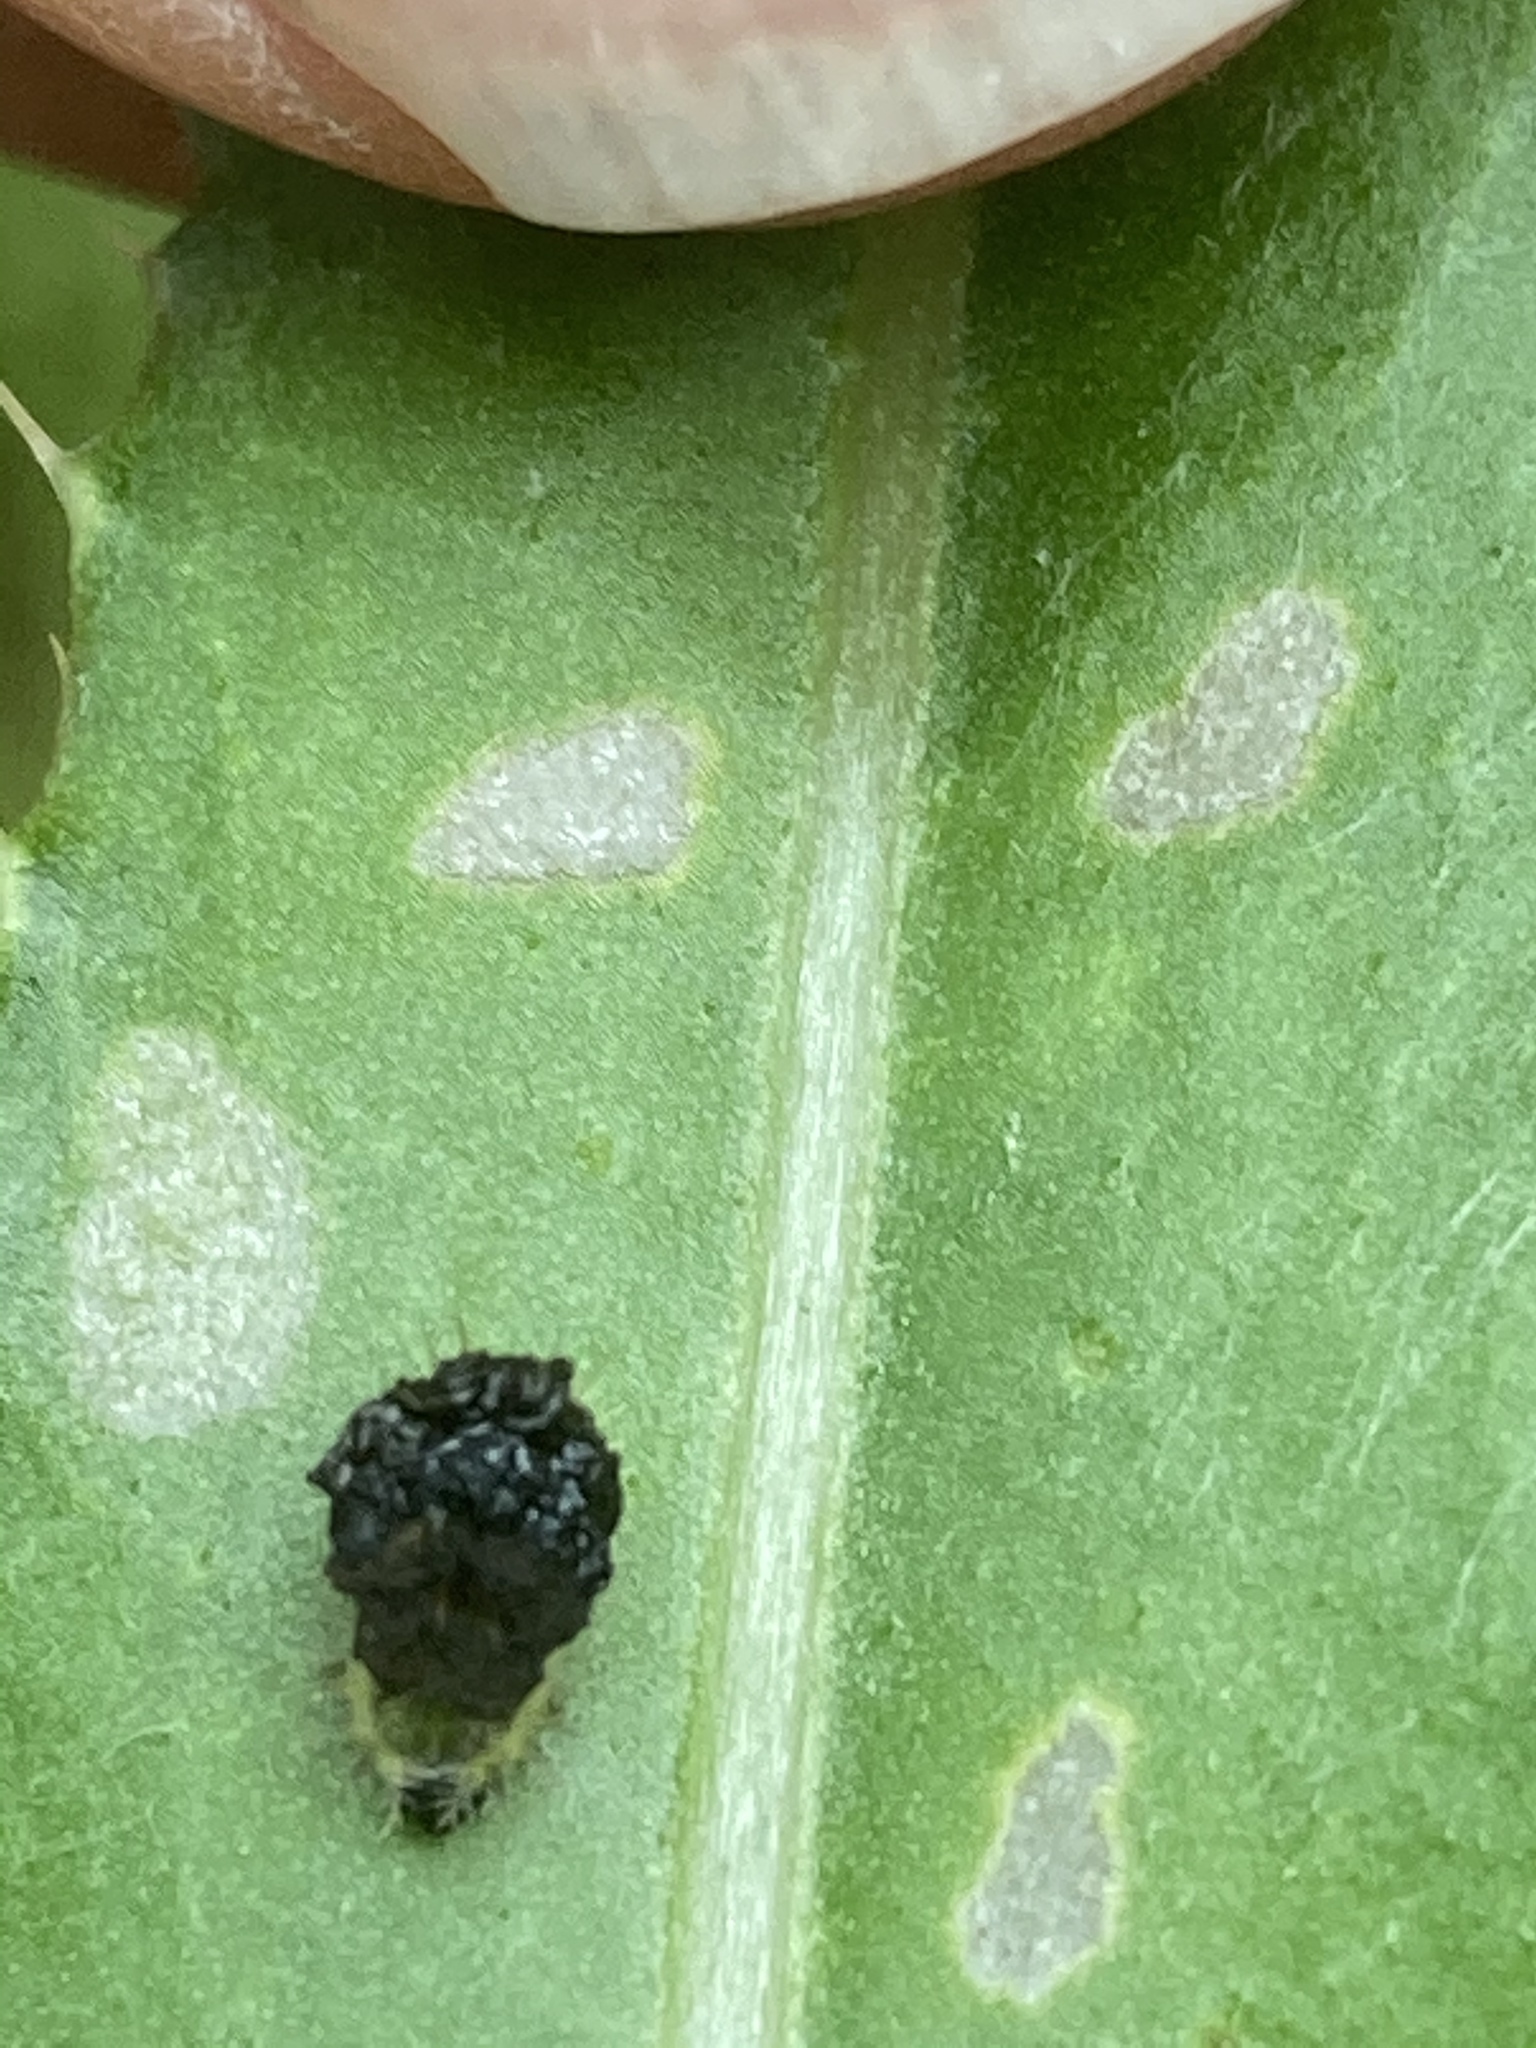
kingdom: Animalia
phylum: Arthropoda
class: Insecta
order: Coleoptera
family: Chrysomelidae
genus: Cassida
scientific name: Cassida rubiginosa
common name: Thistle tortoise beetle
